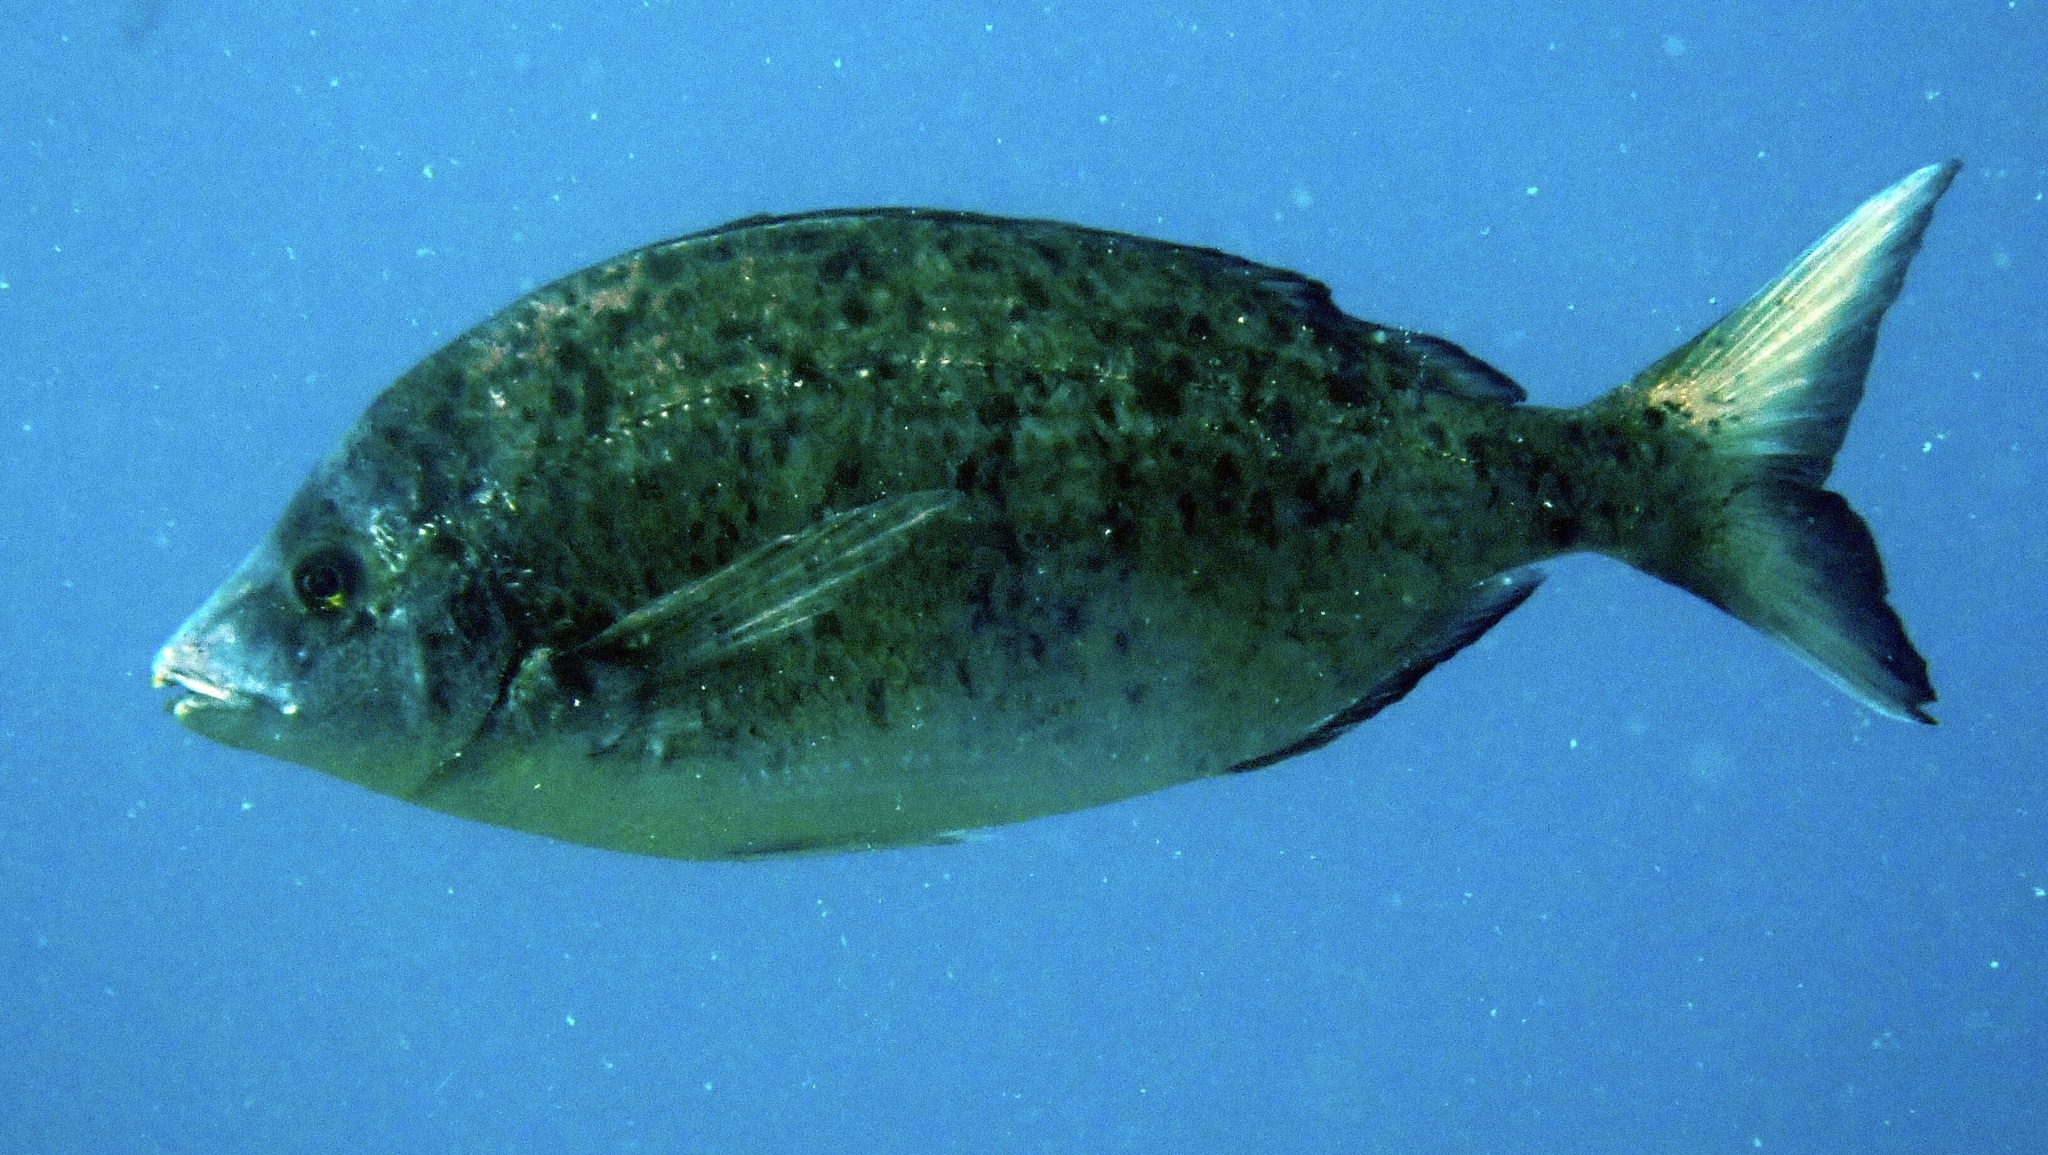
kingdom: Animalia
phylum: Chordata
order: Perciformes
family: Sparidae
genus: Diplodus
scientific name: Diplodus puntazzo
